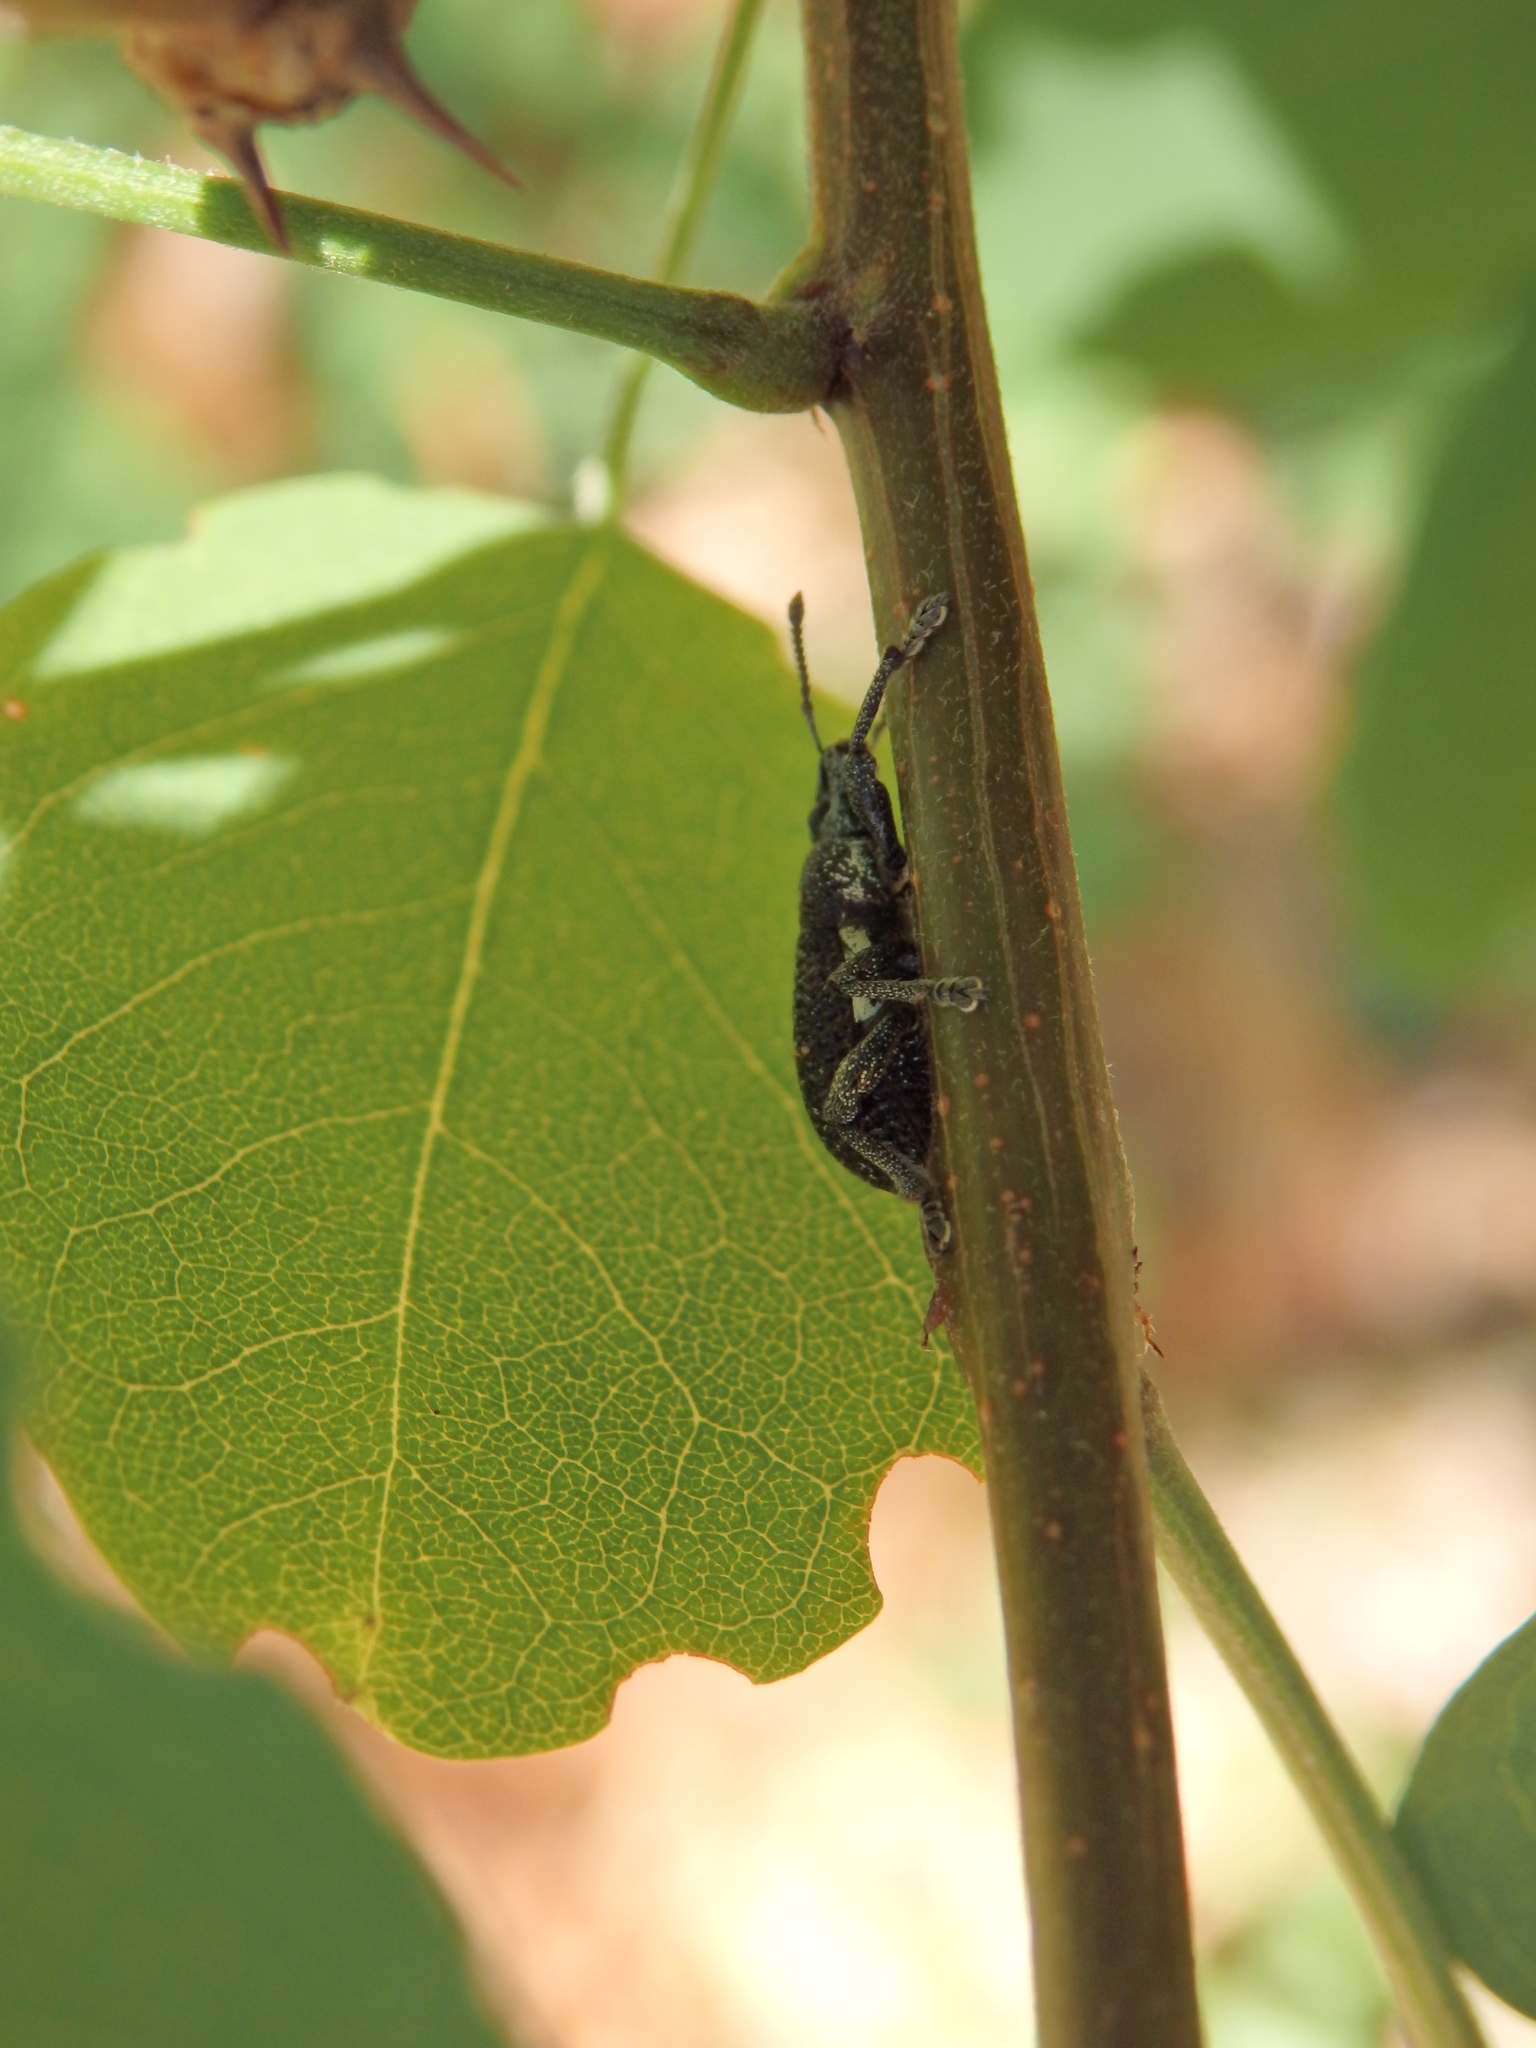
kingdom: Animalia
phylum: Arthropoda
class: Insecta
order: Coleoptera
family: Curculionidae
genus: Polydius
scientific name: Polydius hispanus
